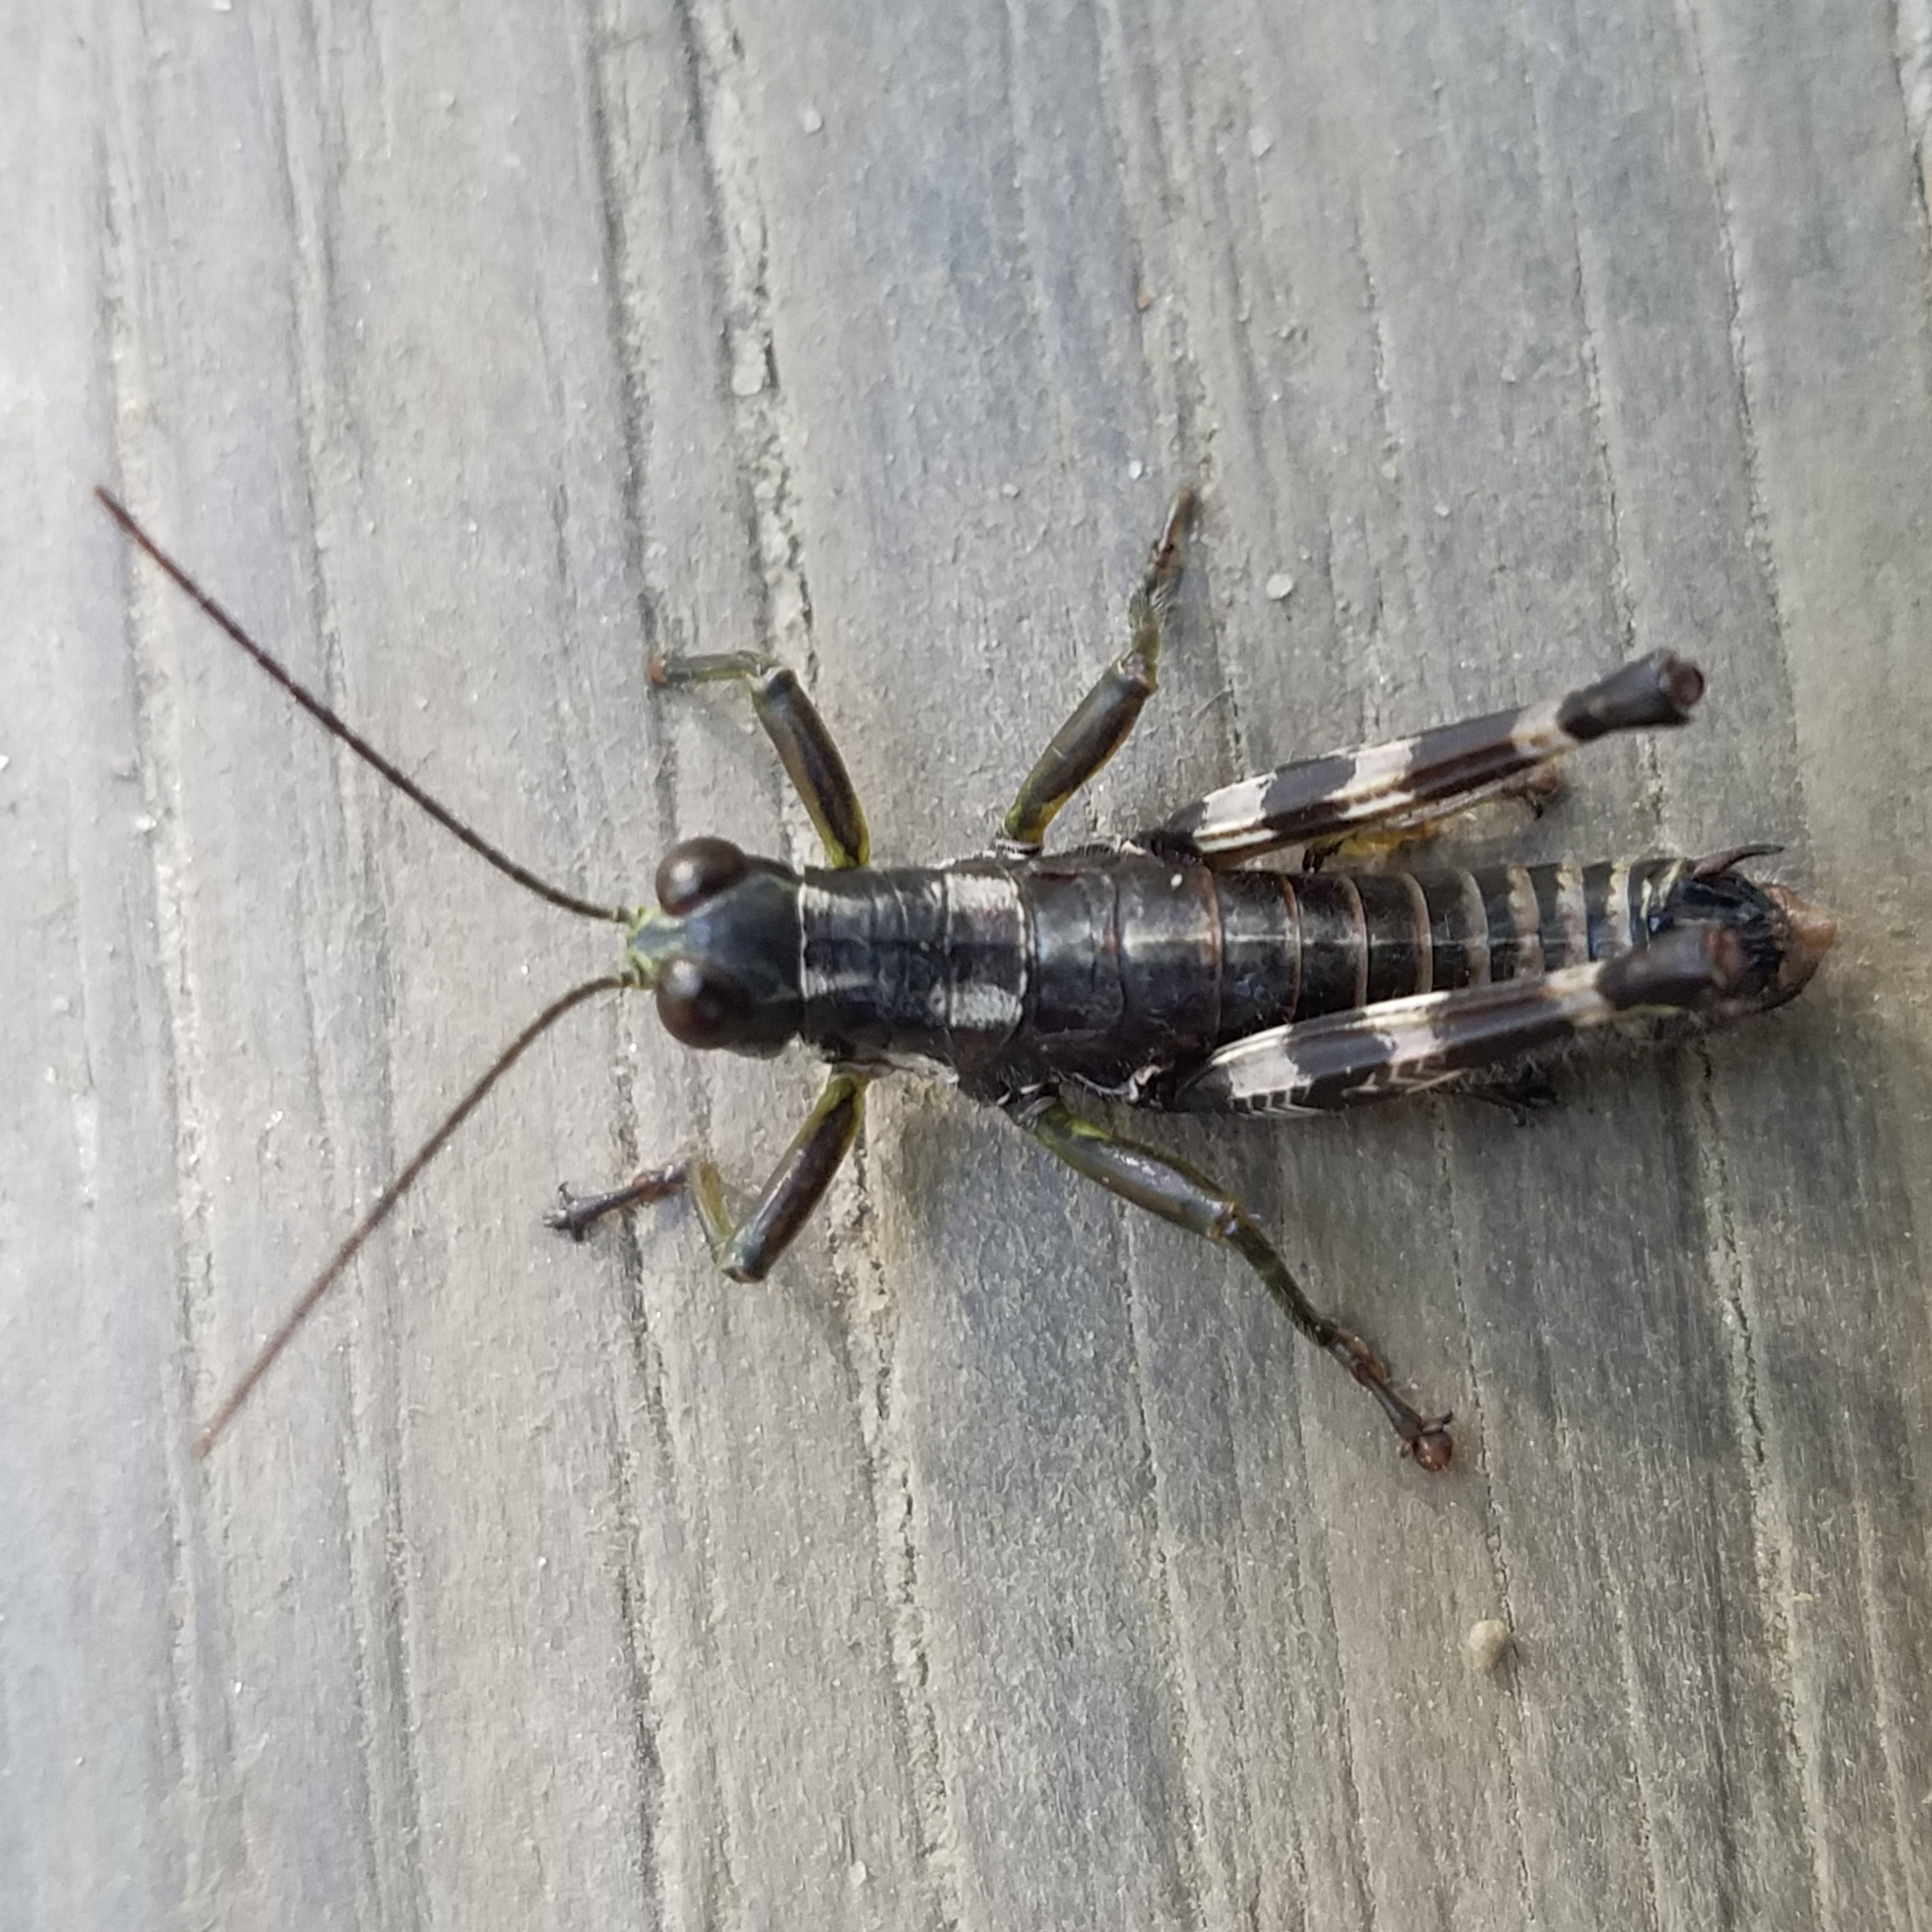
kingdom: Animalia
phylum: Arthropoda
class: Insecta
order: Orthoptera
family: Acrididae
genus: Booneacris
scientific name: Booneacris glacialis
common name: Wingless mountain grasshopper
